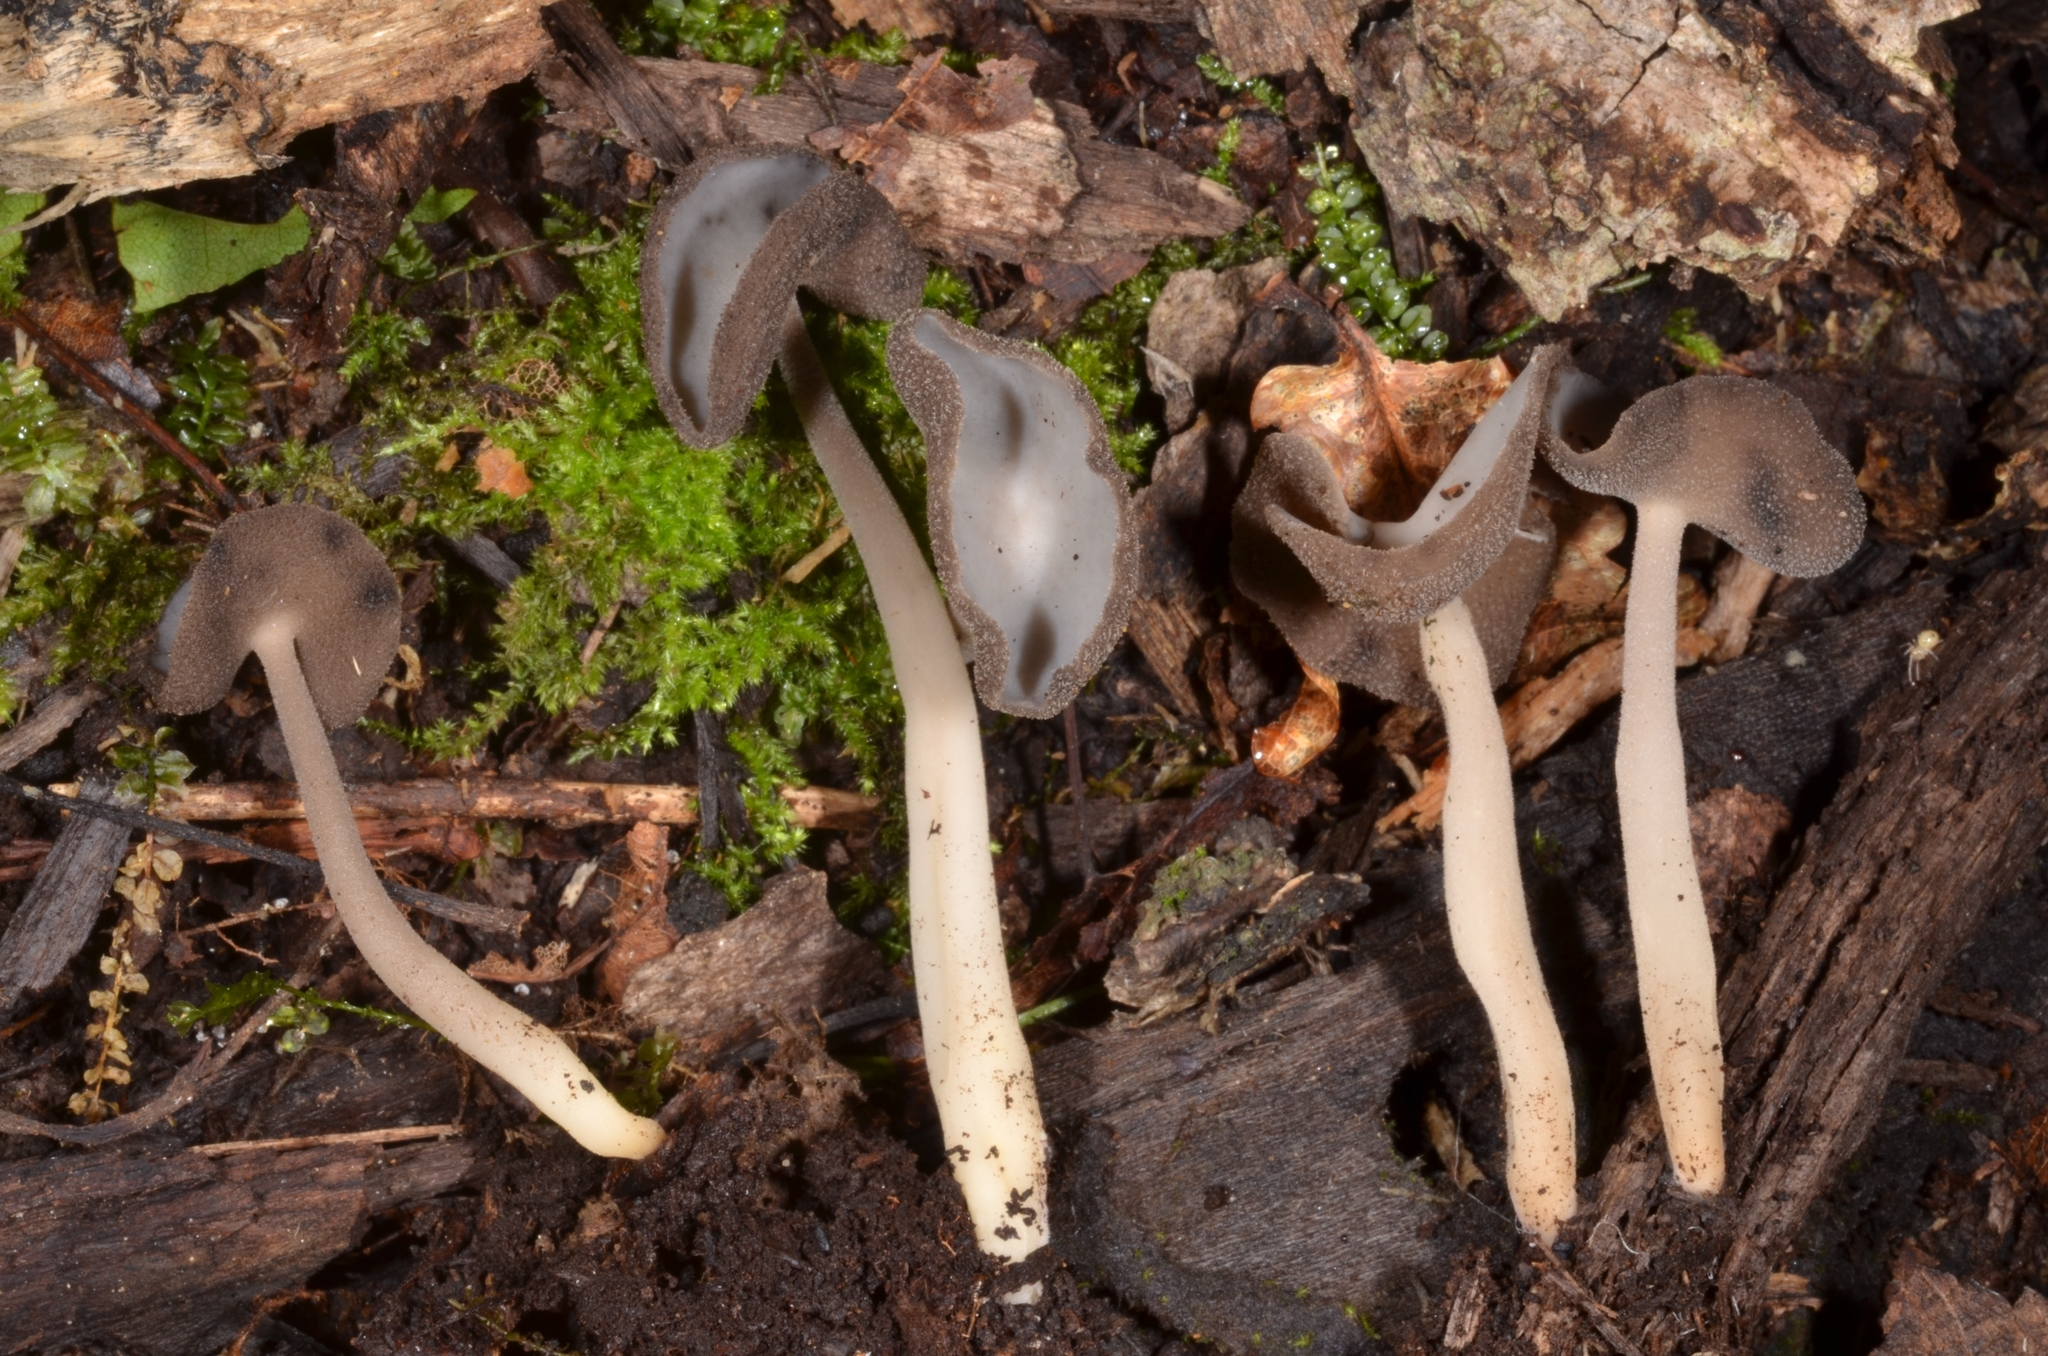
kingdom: Fungi
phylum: Ascomycota
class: Pezizomycetes
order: Pezizales
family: Helvellaceae
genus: Helvella
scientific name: Helvella macropus
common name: Felt saddle
